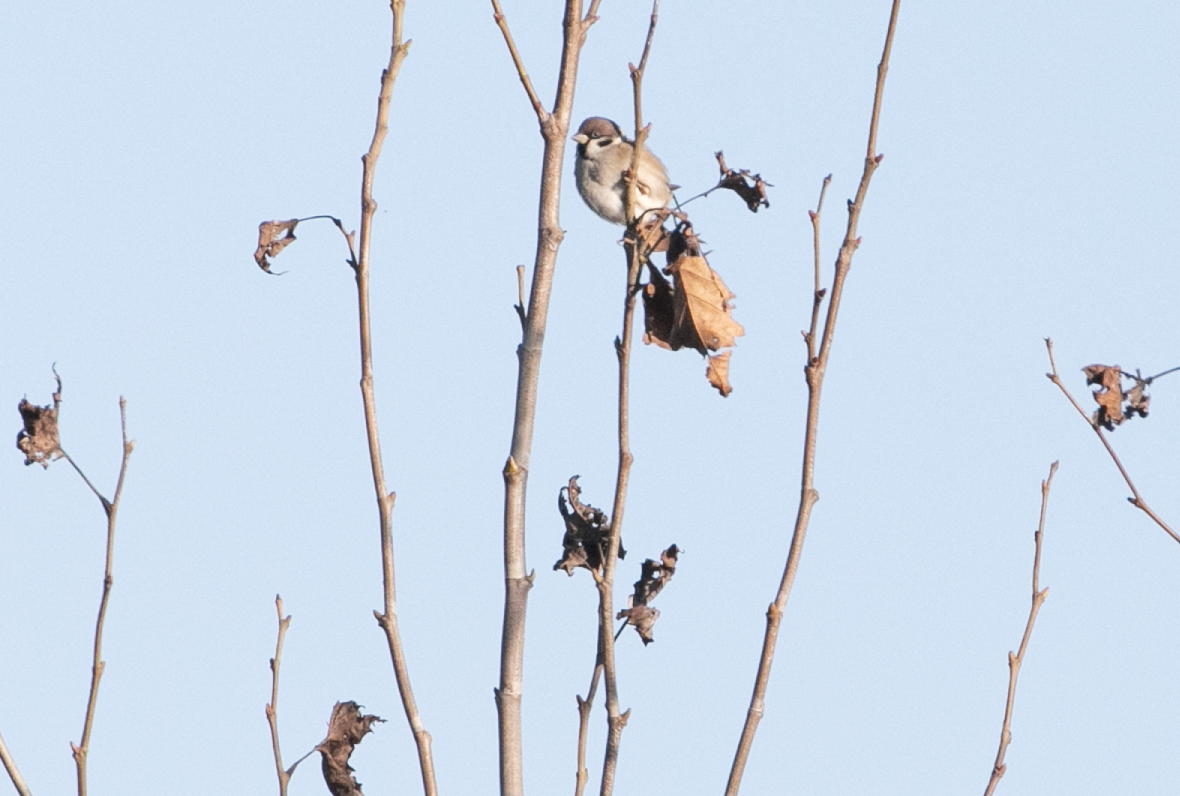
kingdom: Animalia
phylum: Chordata
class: Aves
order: Passeriformes
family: Passeridae
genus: Passer
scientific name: Passer montanus
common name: Eurasian tree sparrow
